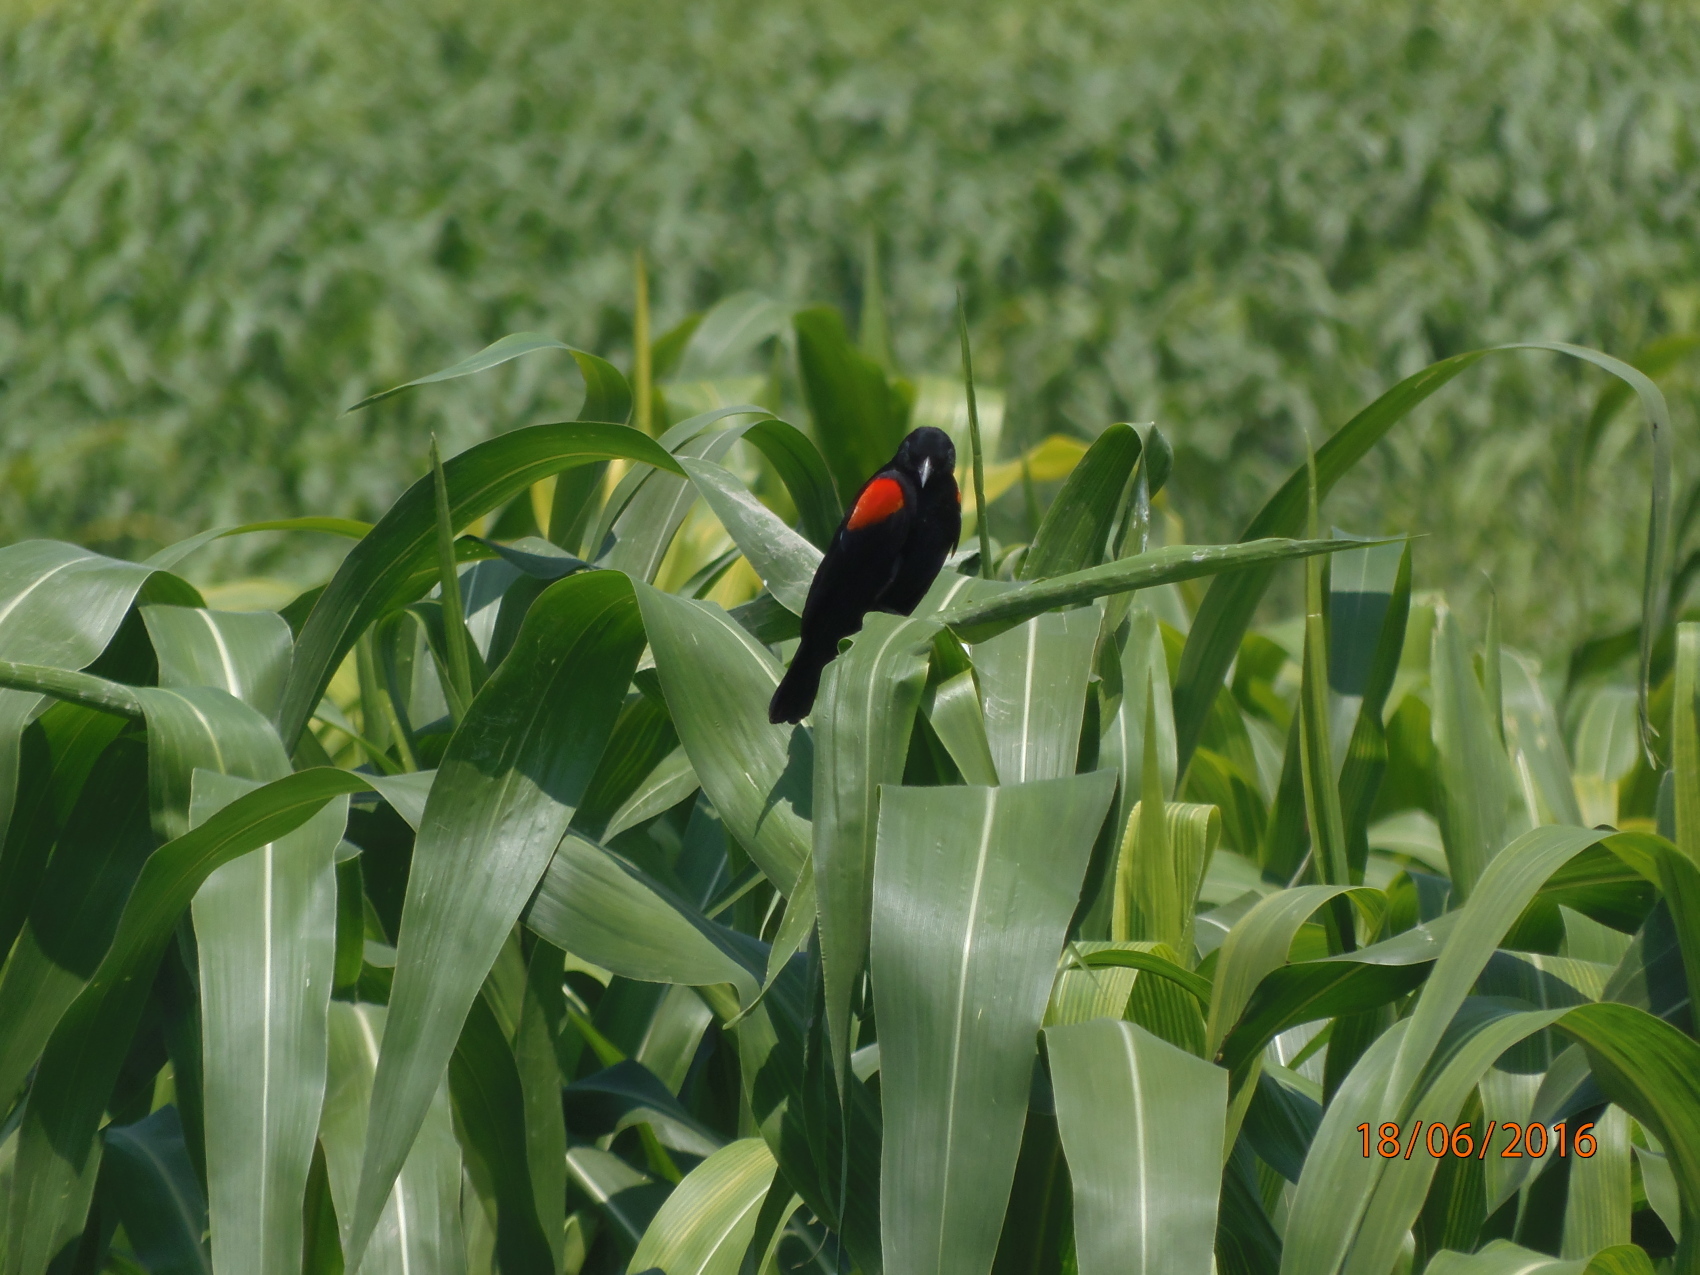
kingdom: Animalia
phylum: Chordata
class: Aves
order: Passeriformes
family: Icteridae
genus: Agelaius
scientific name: Agelaius phoeniceus
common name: Red-winged blackbird
